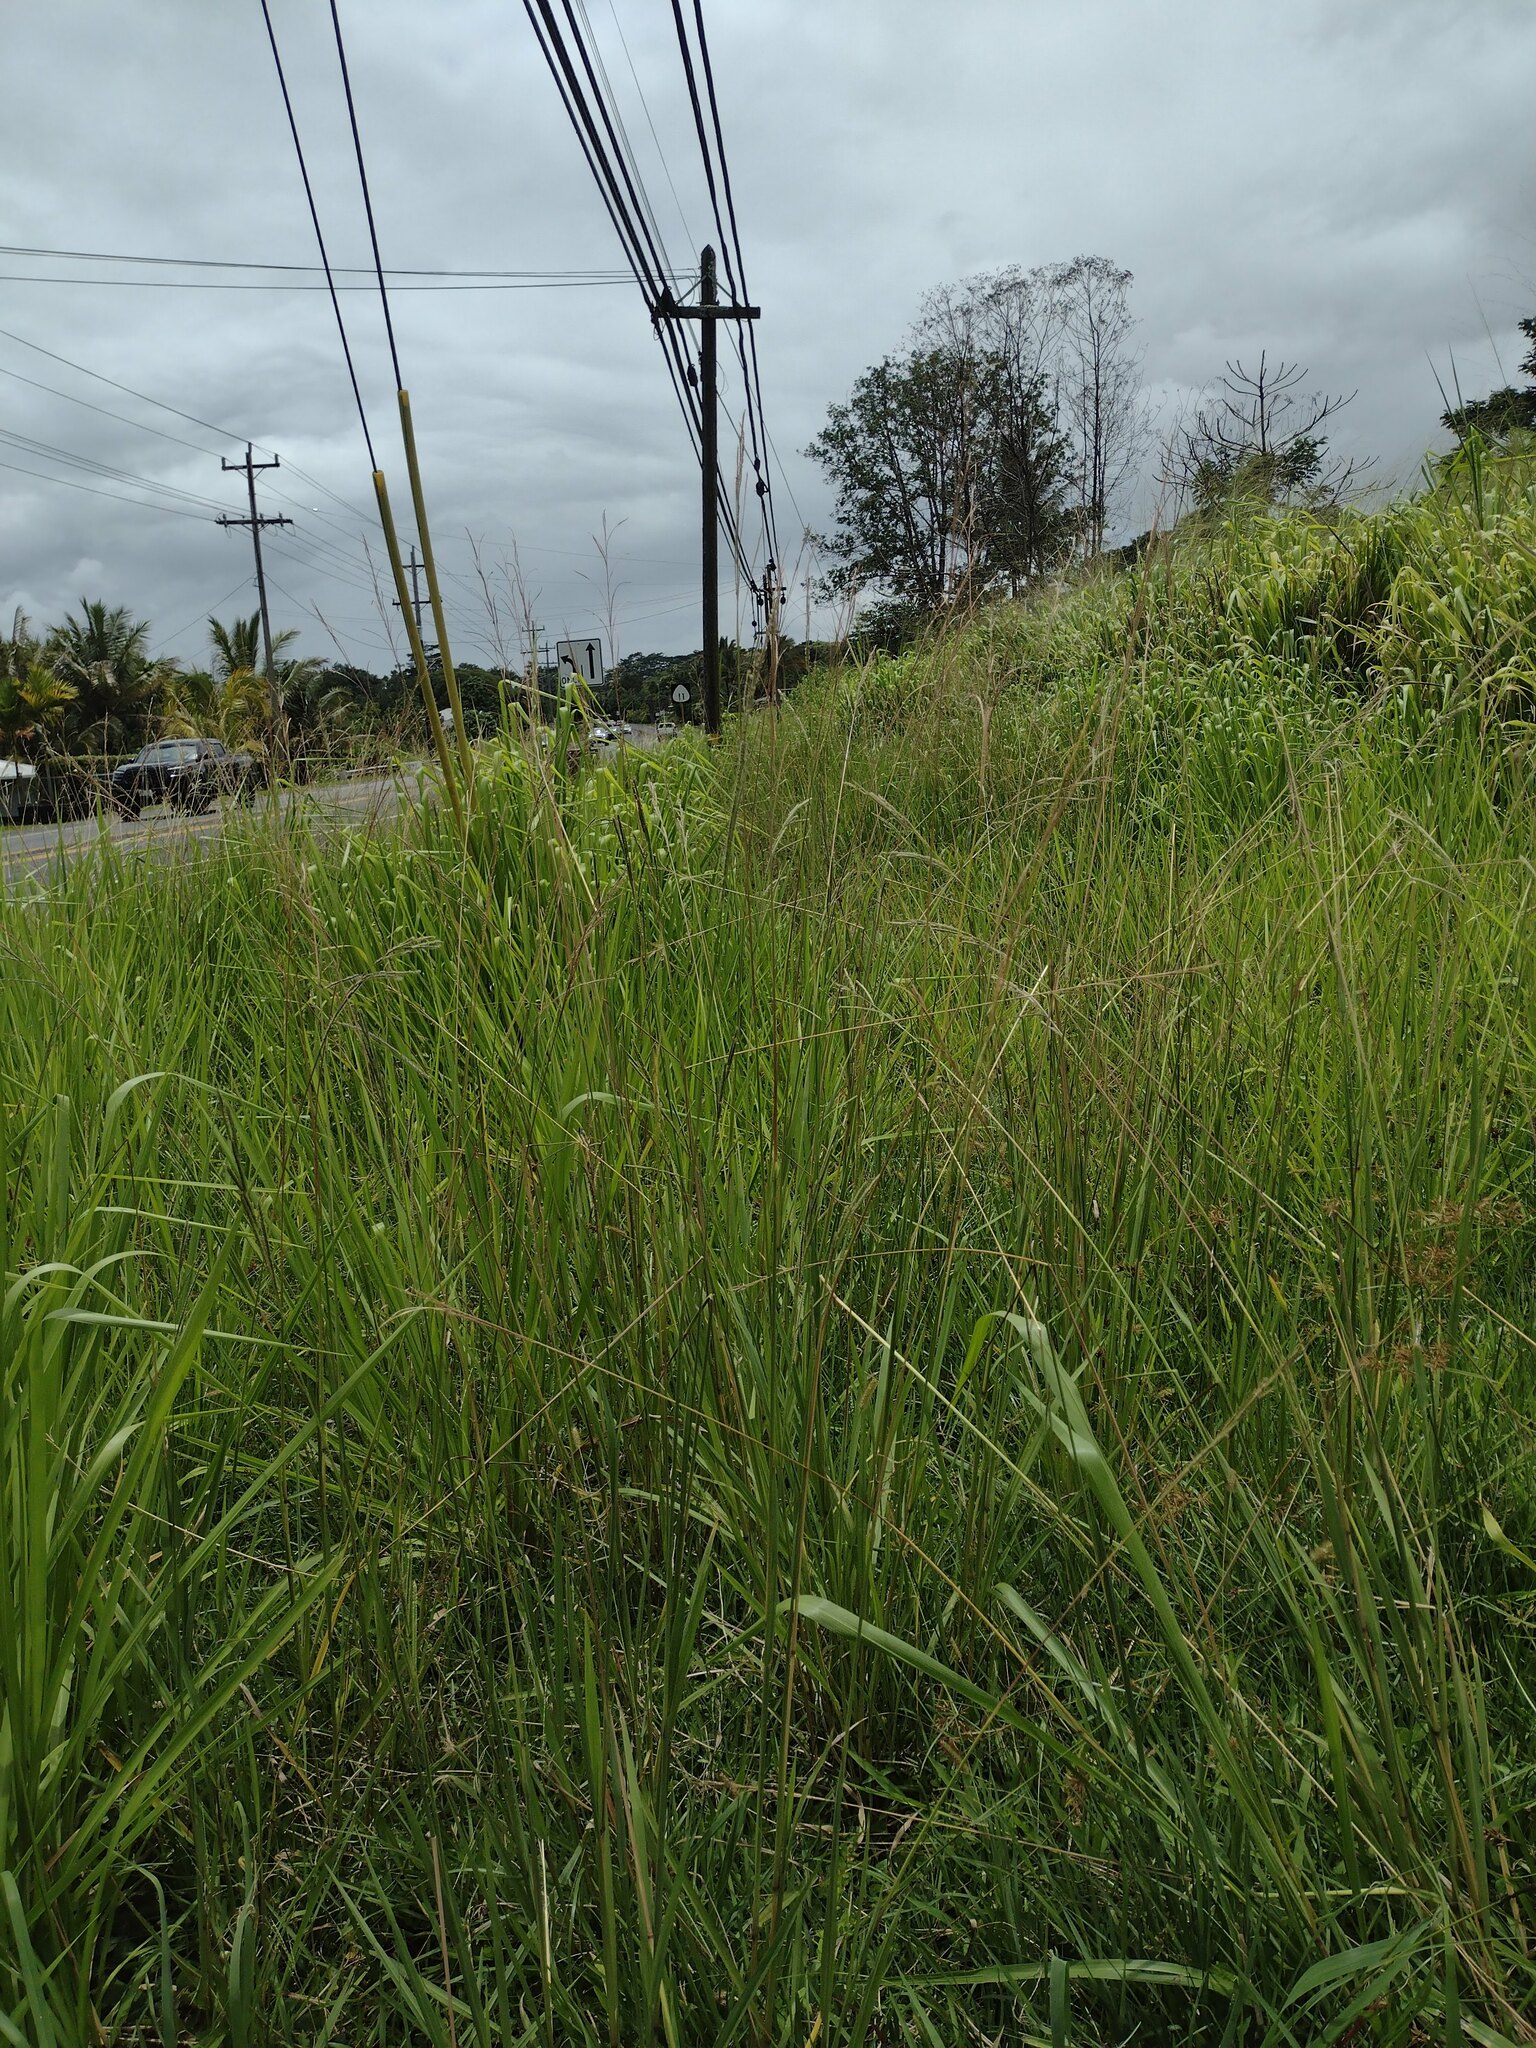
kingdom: Plantae
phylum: Tracheophyta
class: Liliopsida
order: Poales
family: Poaceae
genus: Megathyrsus
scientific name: Megathyrsus maximus
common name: Guineagrass
